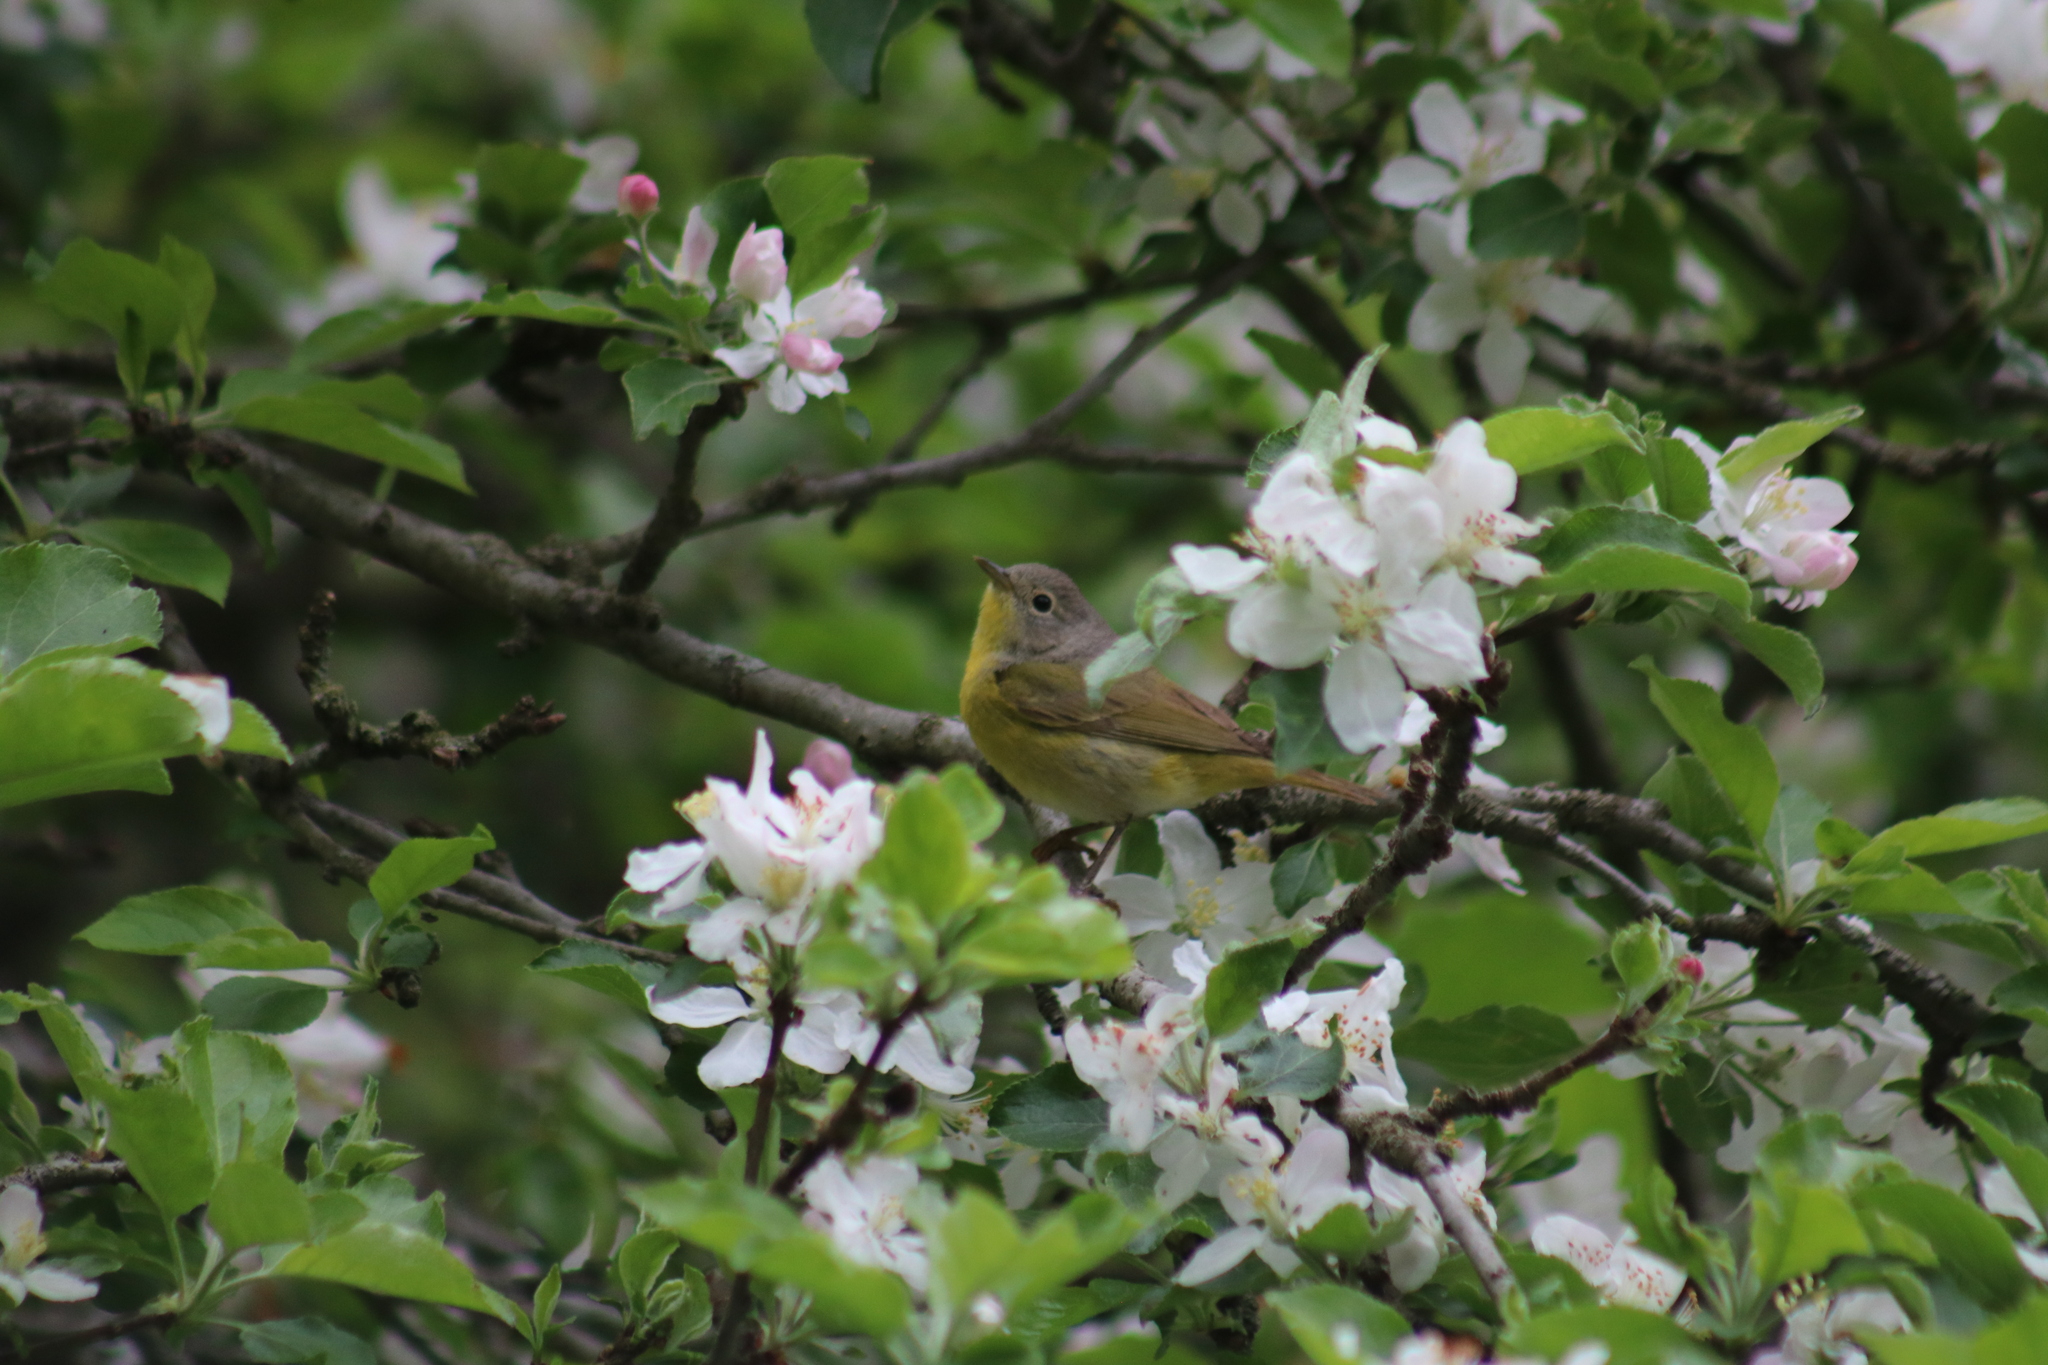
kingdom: Animalia
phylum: Chordata
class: Aves
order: Passeriformes
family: Parulidae
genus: Leiothlypis
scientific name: Leiothlypis ruficapilla
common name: Nashville warbler
